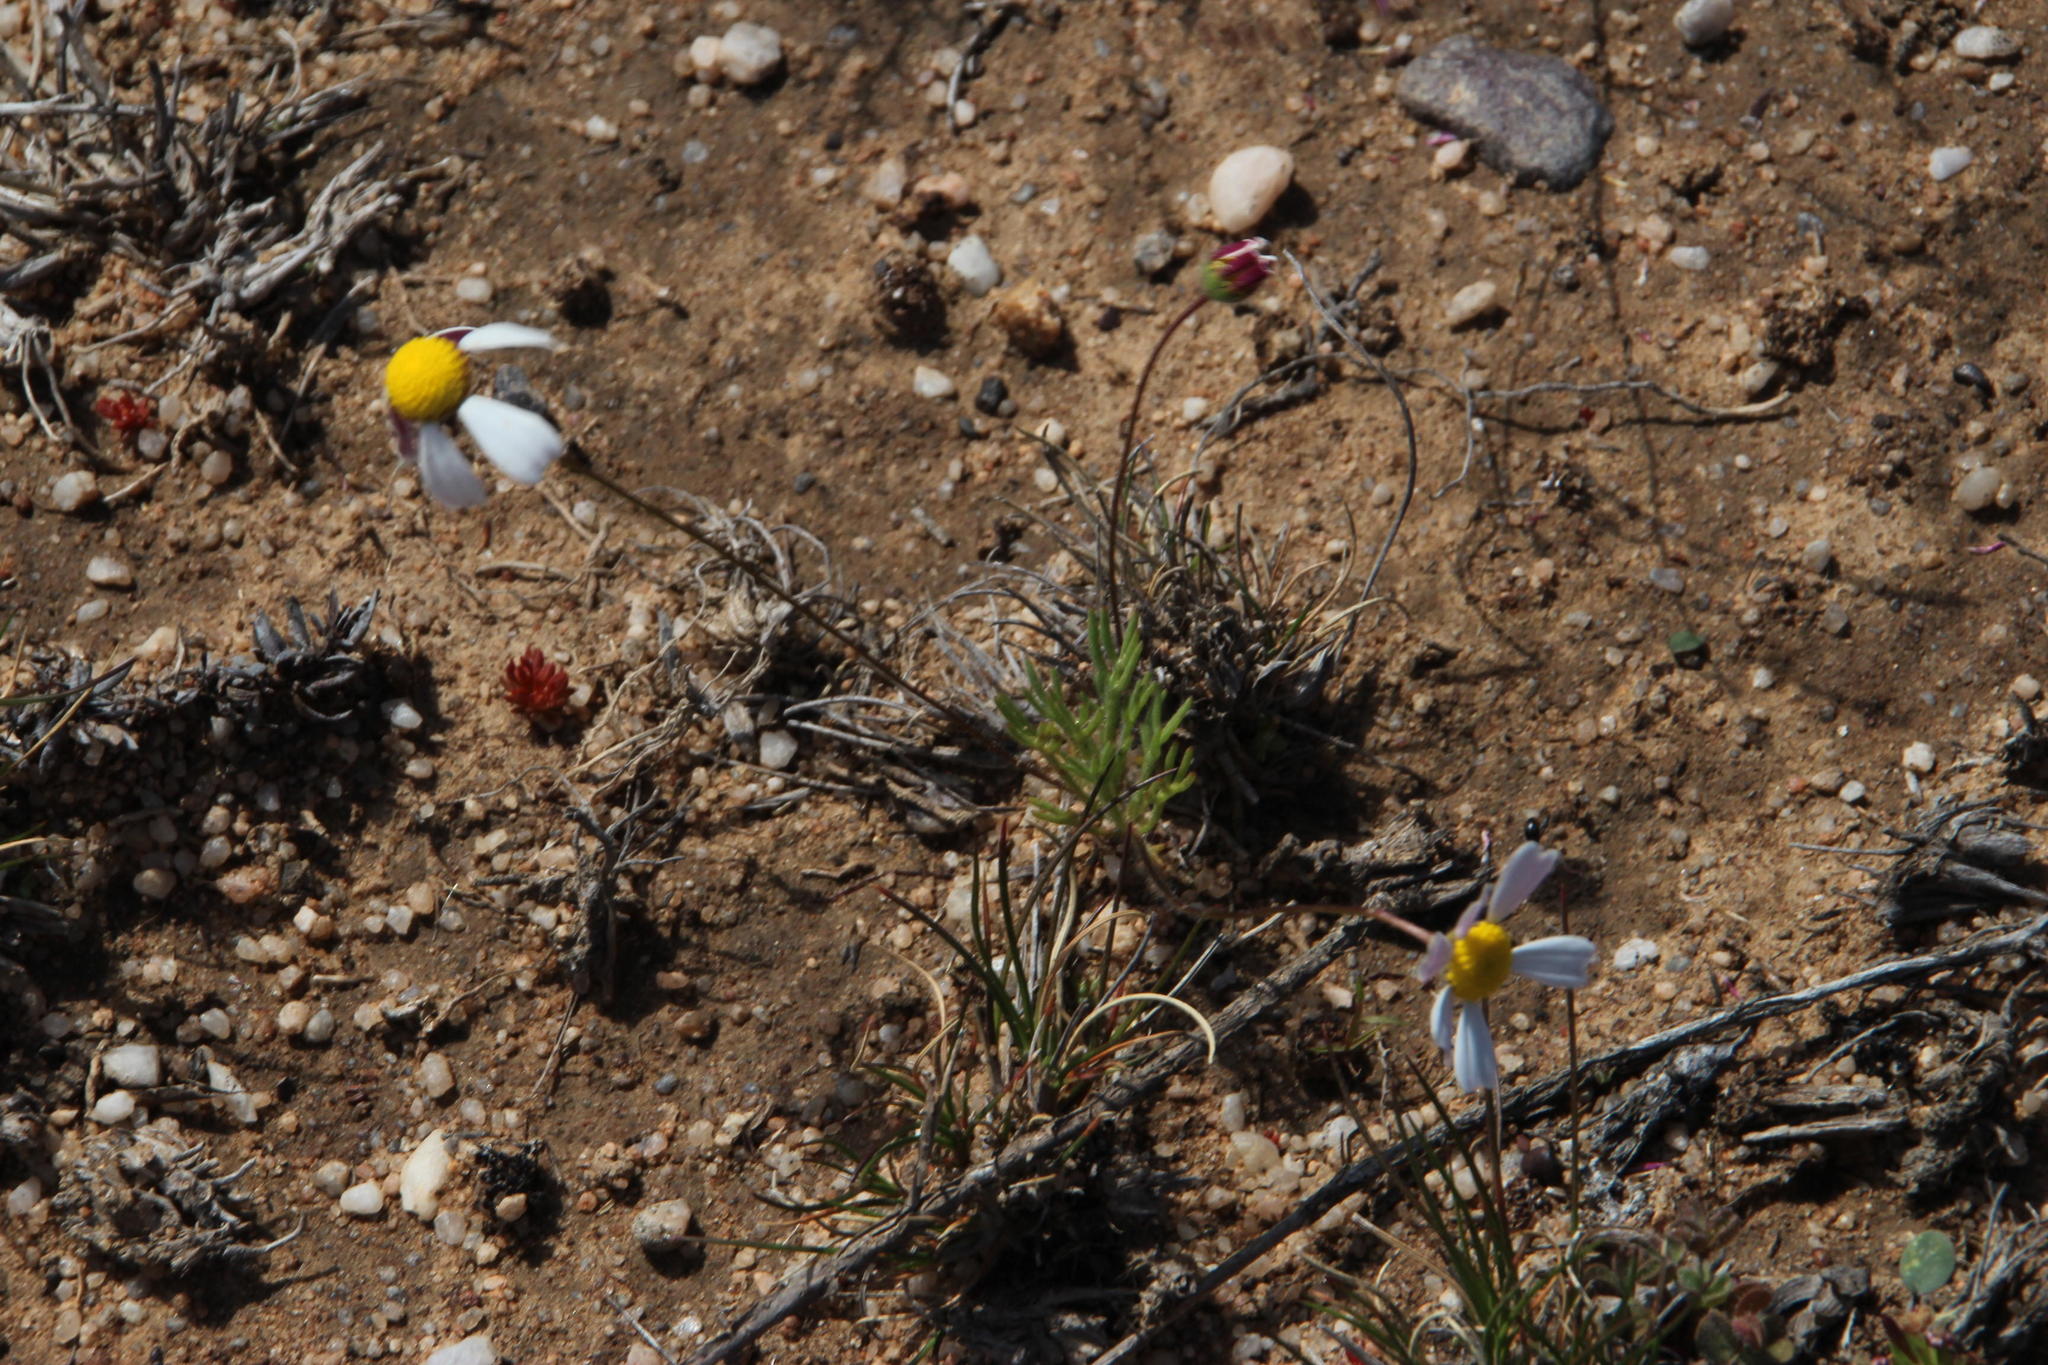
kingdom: Plantae
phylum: Tracheophyta
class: Magnoliopsida
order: Asterales
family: Asteraceae
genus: Cotula
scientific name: Cotula macroglossa
